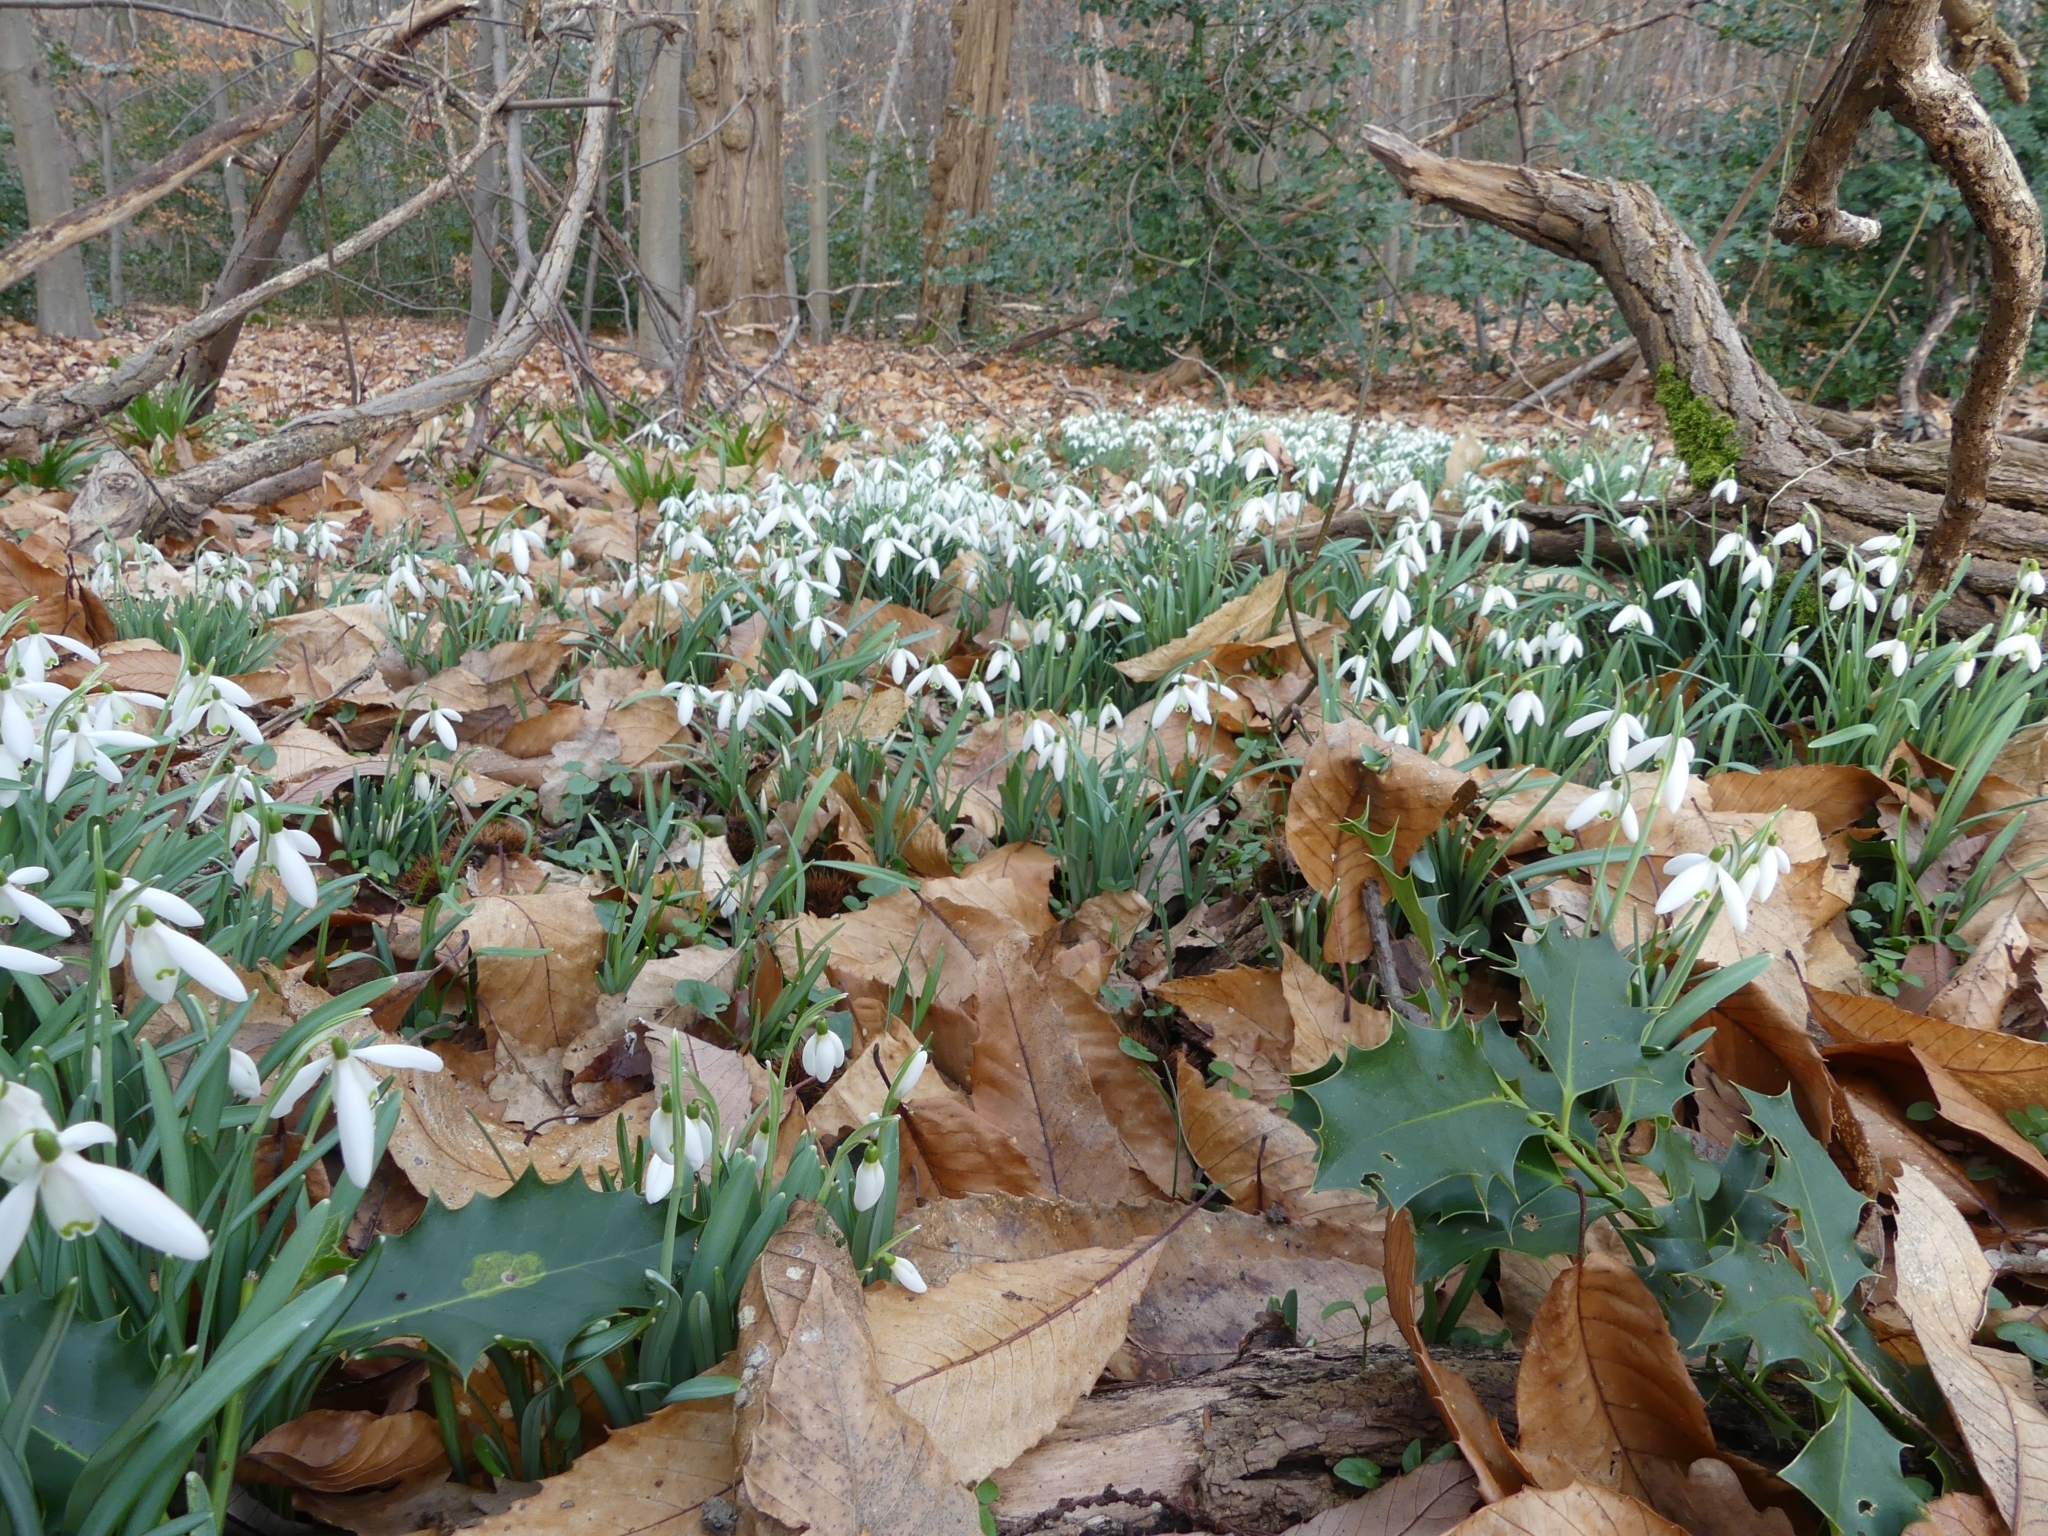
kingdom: Plantae
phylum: Tracheophyta
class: Liliopsida
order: Asparagales
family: Amaryllidaceae
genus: Galanthus
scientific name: Galanthus nivalis
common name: Snowdrop
